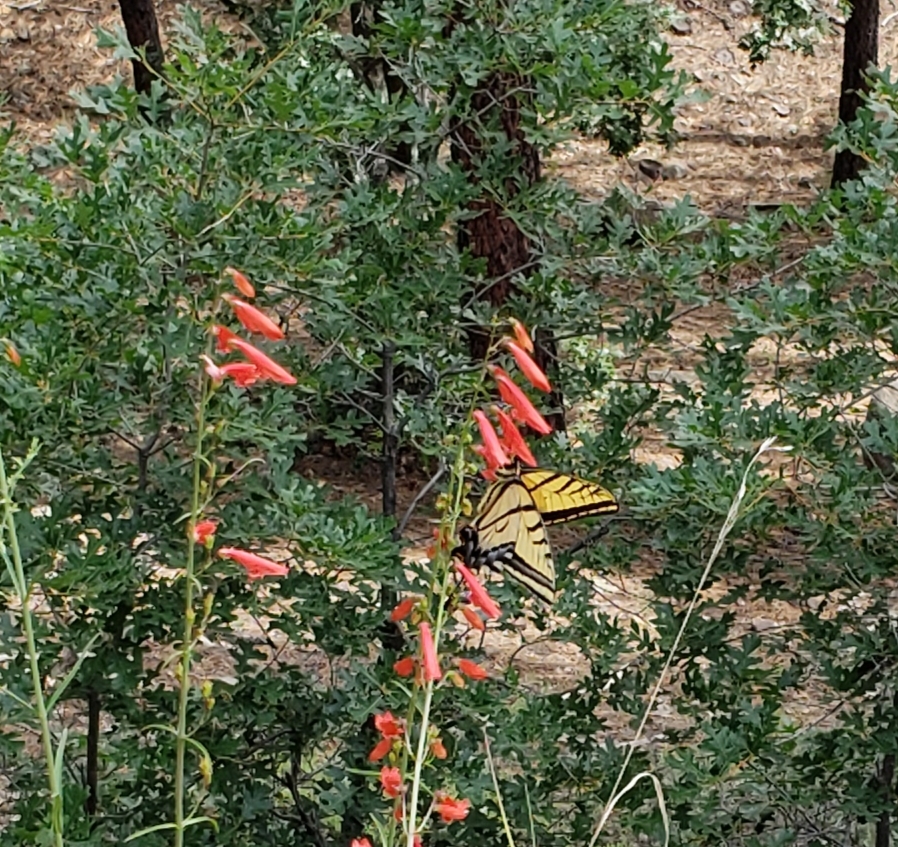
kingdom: Animalia
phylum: Arthropoda
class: Insecta
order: Lepidoptera
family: Papilionidae
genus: Papilio
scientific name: Papilio rutulus
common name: Western tiger swallowtail
